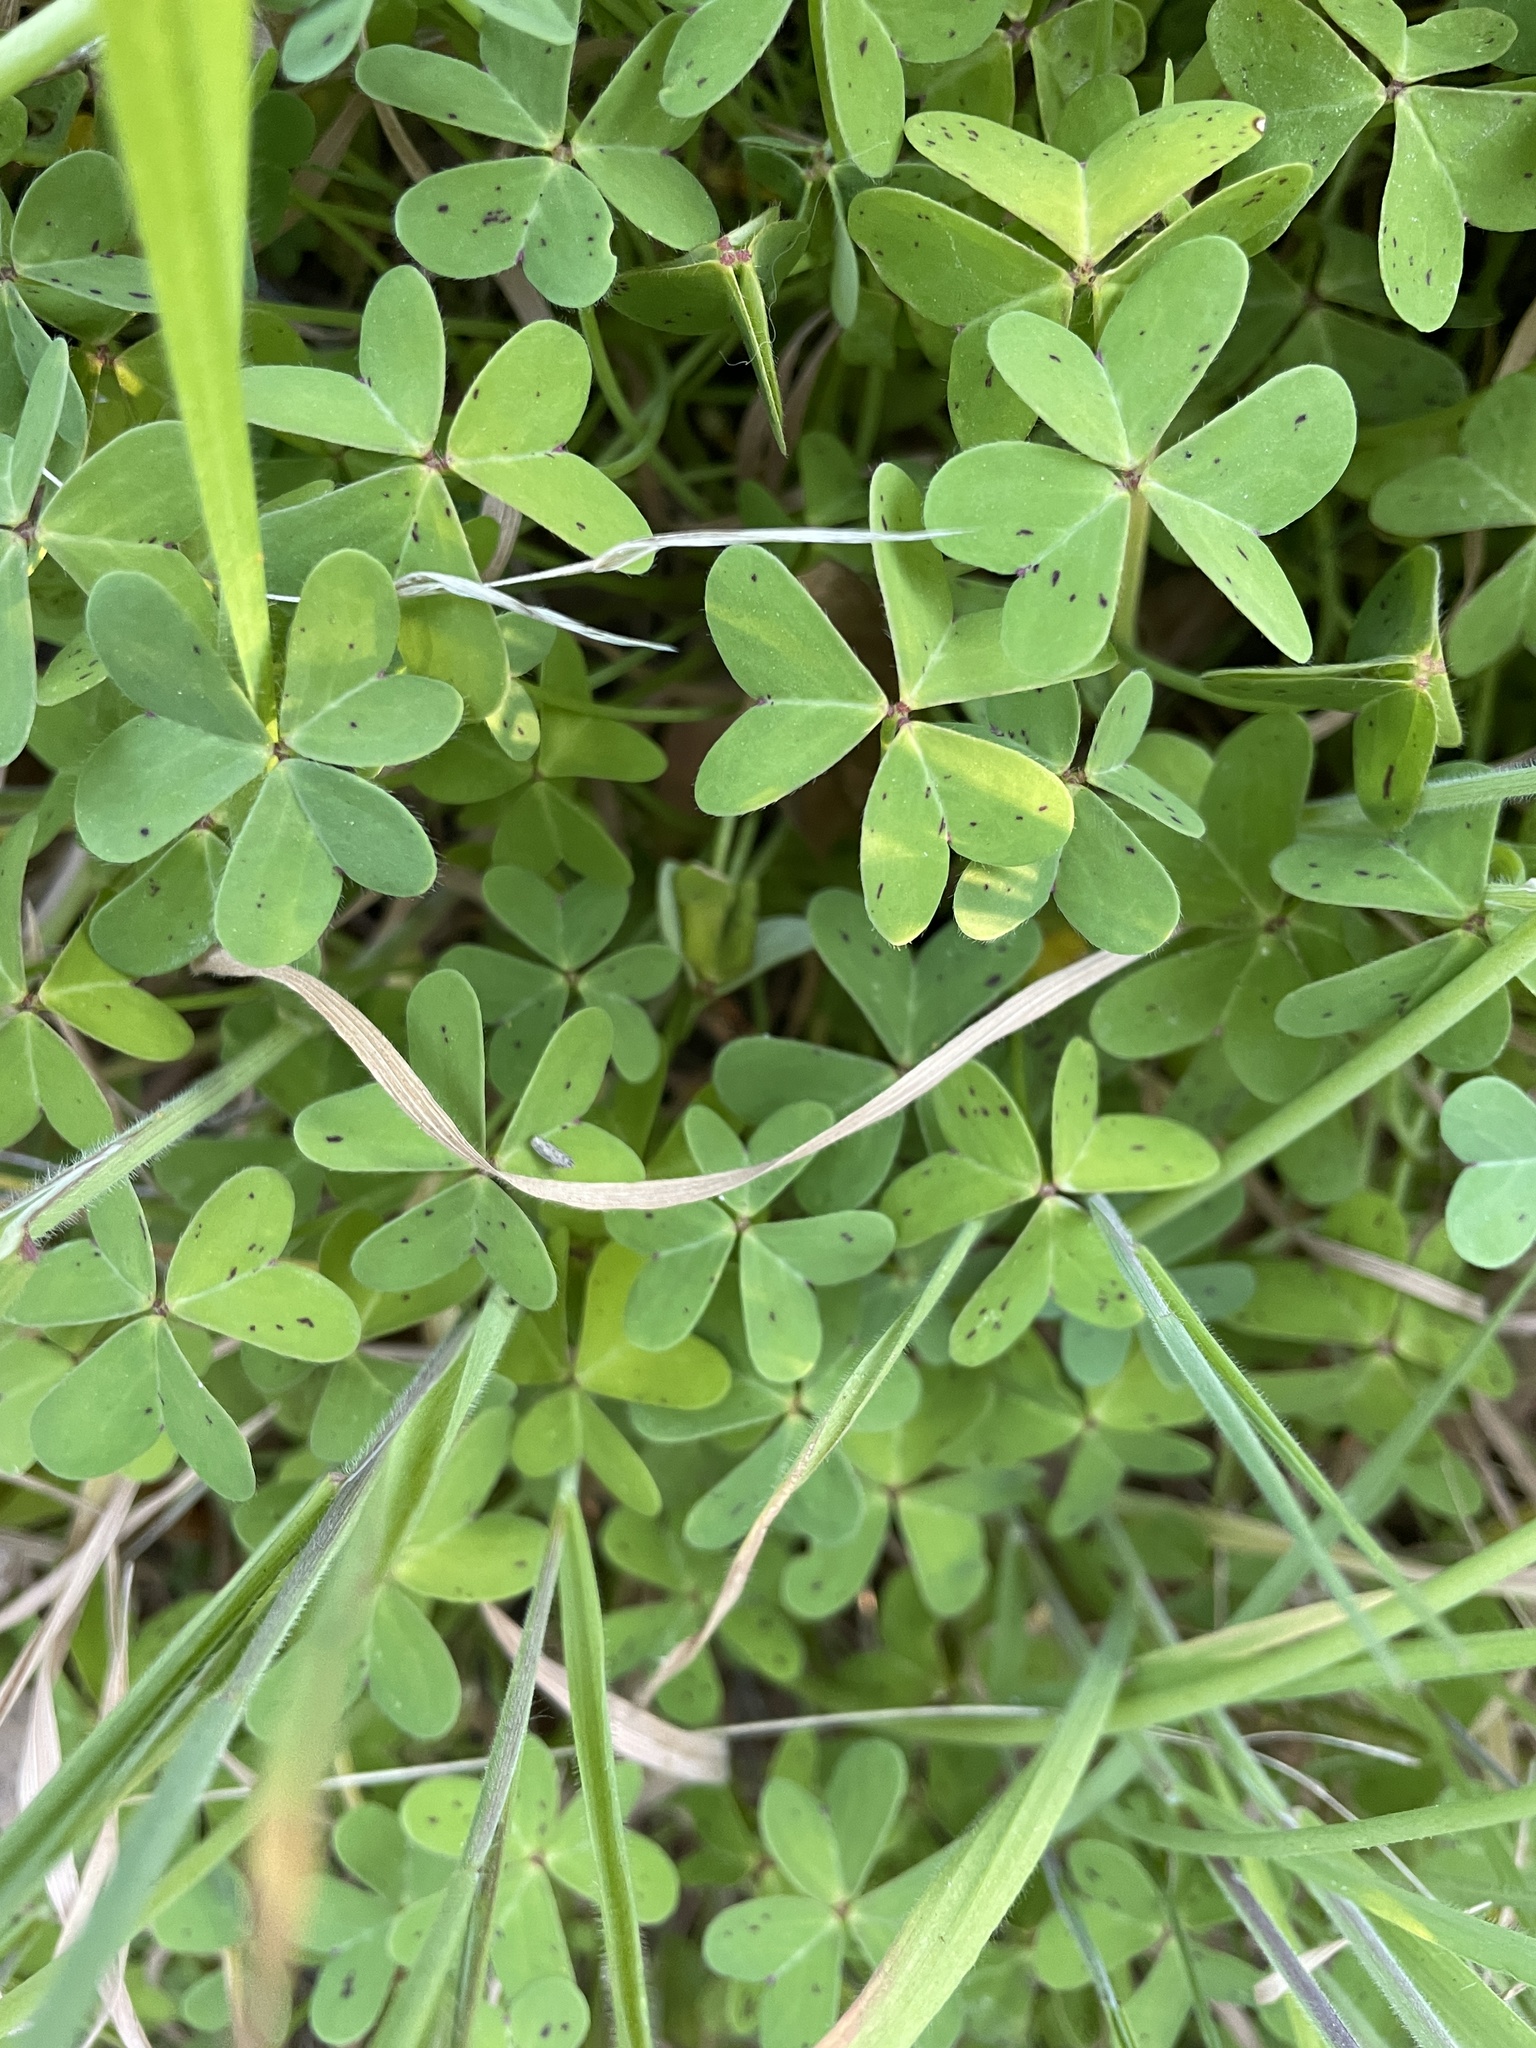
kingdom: Plantae
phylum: Tracheophyta
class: Magnoliopsida
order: Oxalidales
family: Oxalidaceae
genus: Oxalis
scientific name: Oxalis pes-caprae
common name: Bermuda-buttercup
